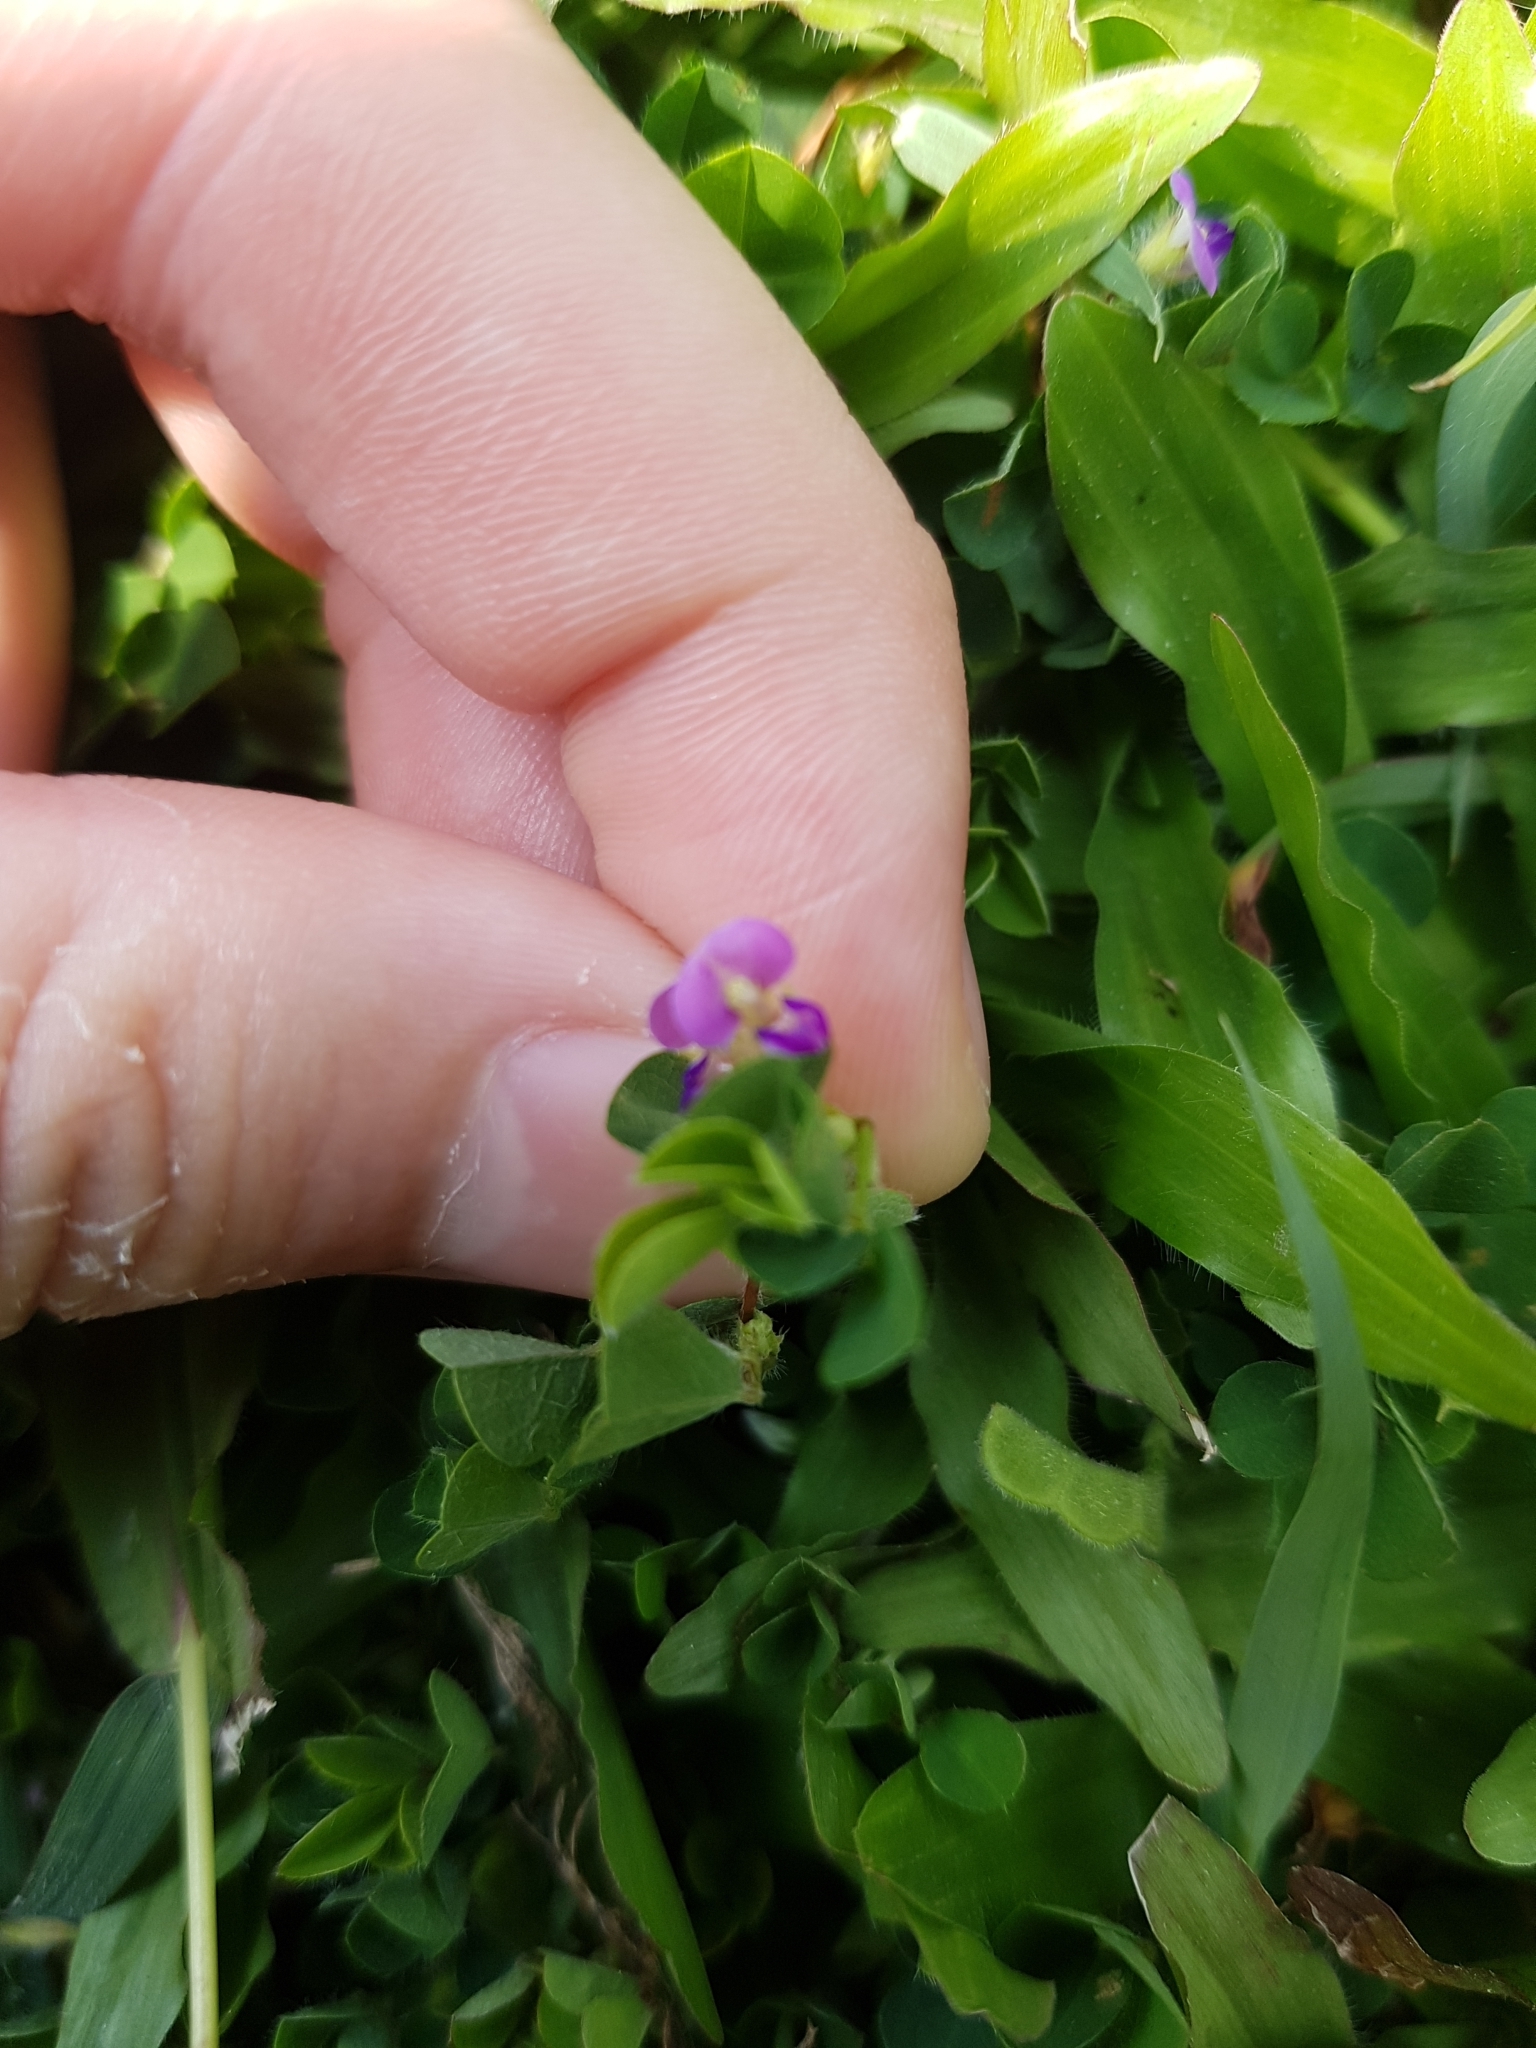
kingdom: Plantae
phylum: Tracheophyta
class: Magnoliopsida
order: Fabales
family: Fabaceae
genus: Grona
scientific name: Grona triflora
